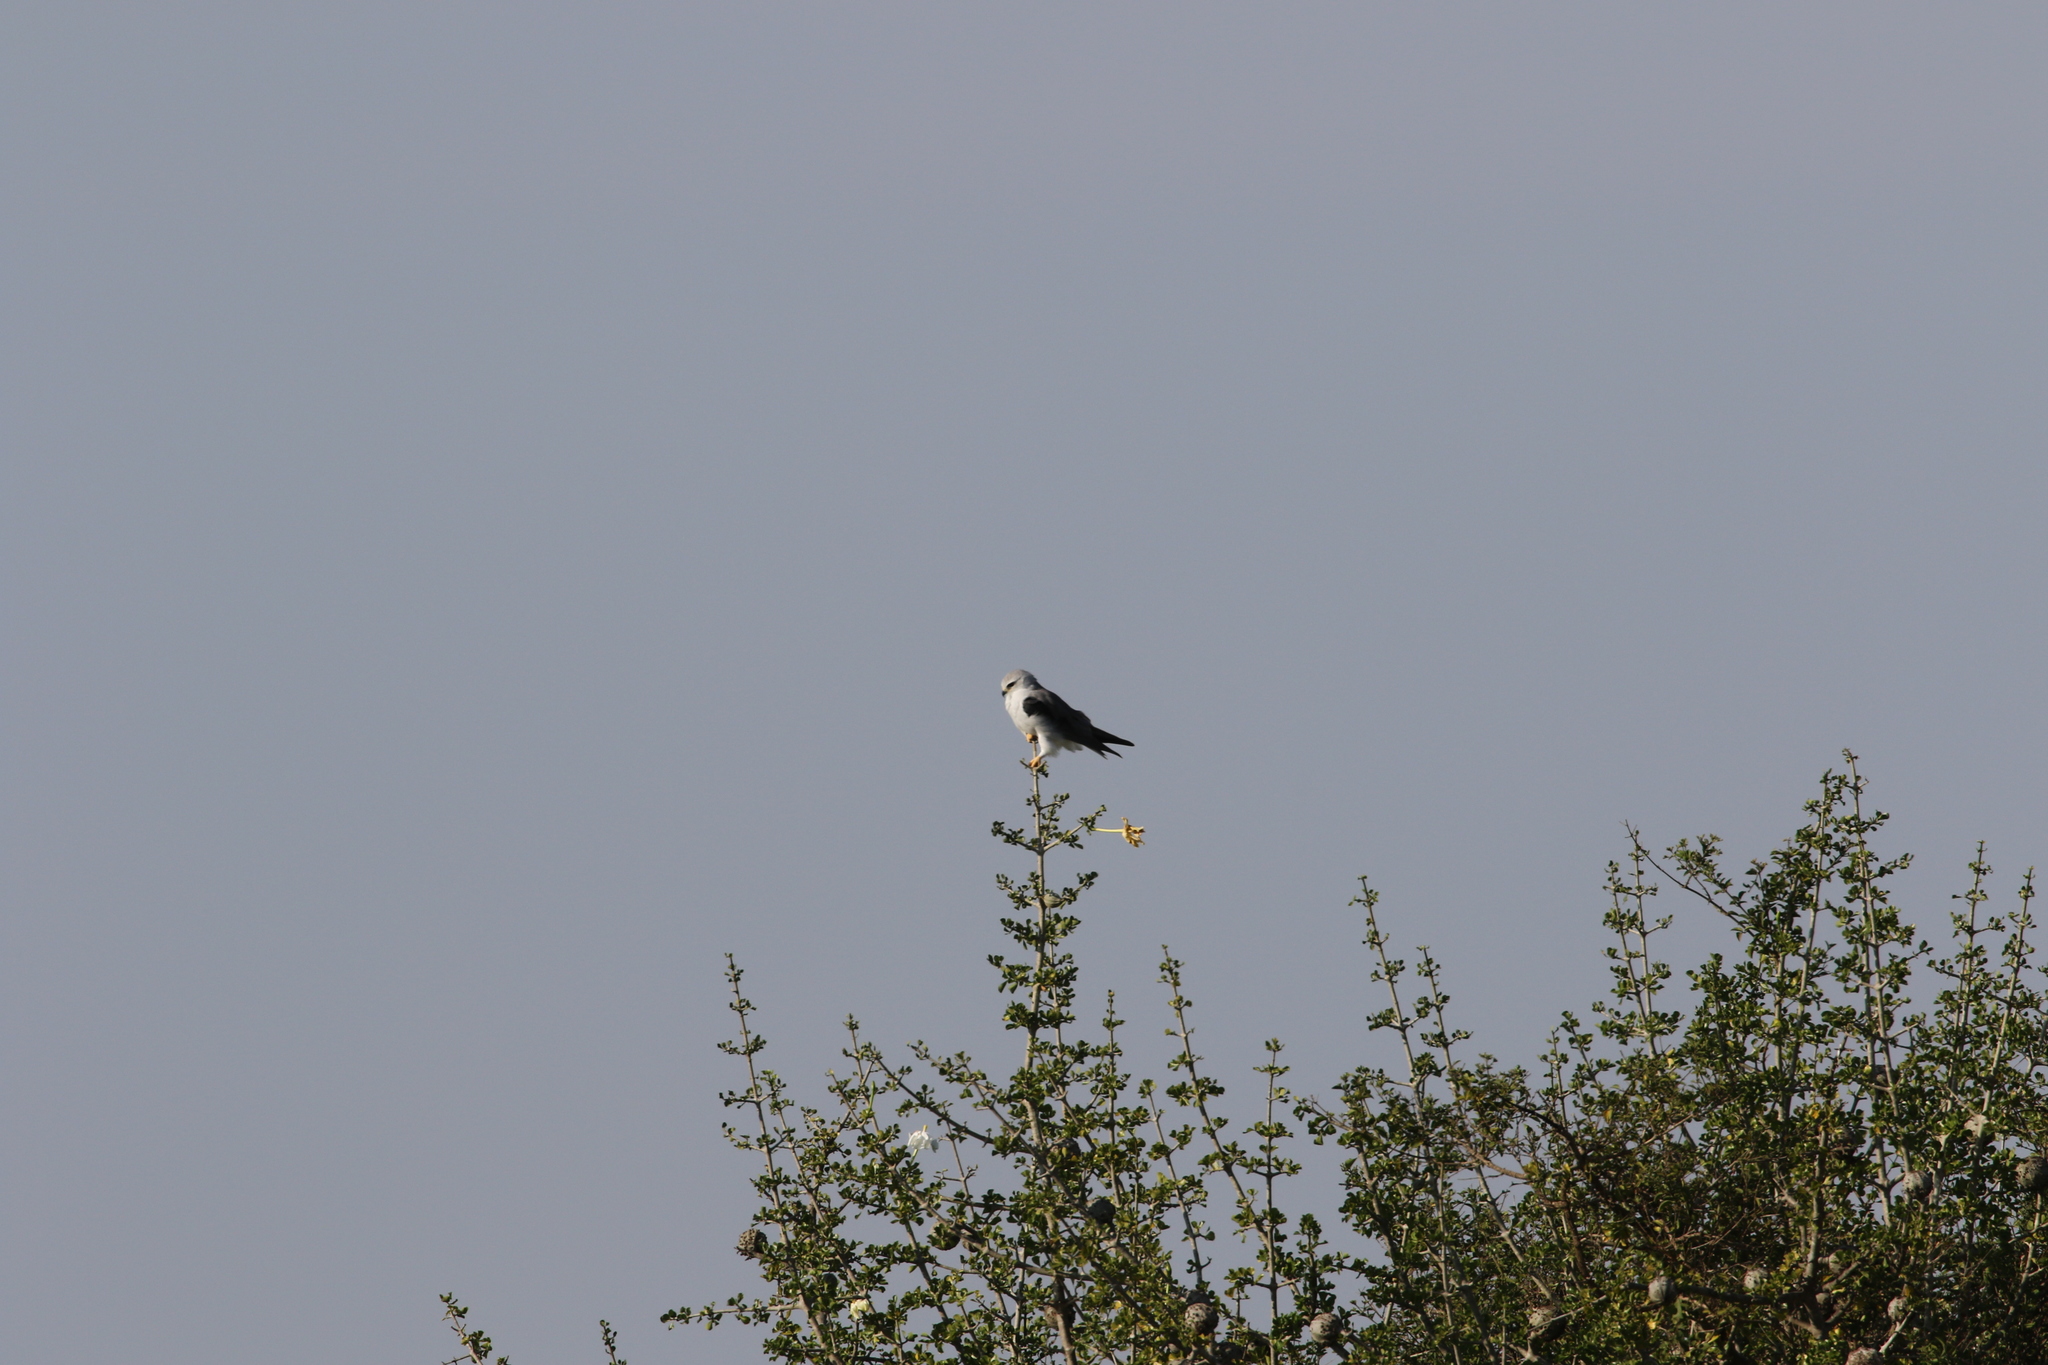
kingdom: Animalia
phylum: Chordata
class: Aves
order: Accipitriformes
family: Accipitridae
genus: Elanus
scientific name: Elanus caeruleus
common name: Black-winged kite
